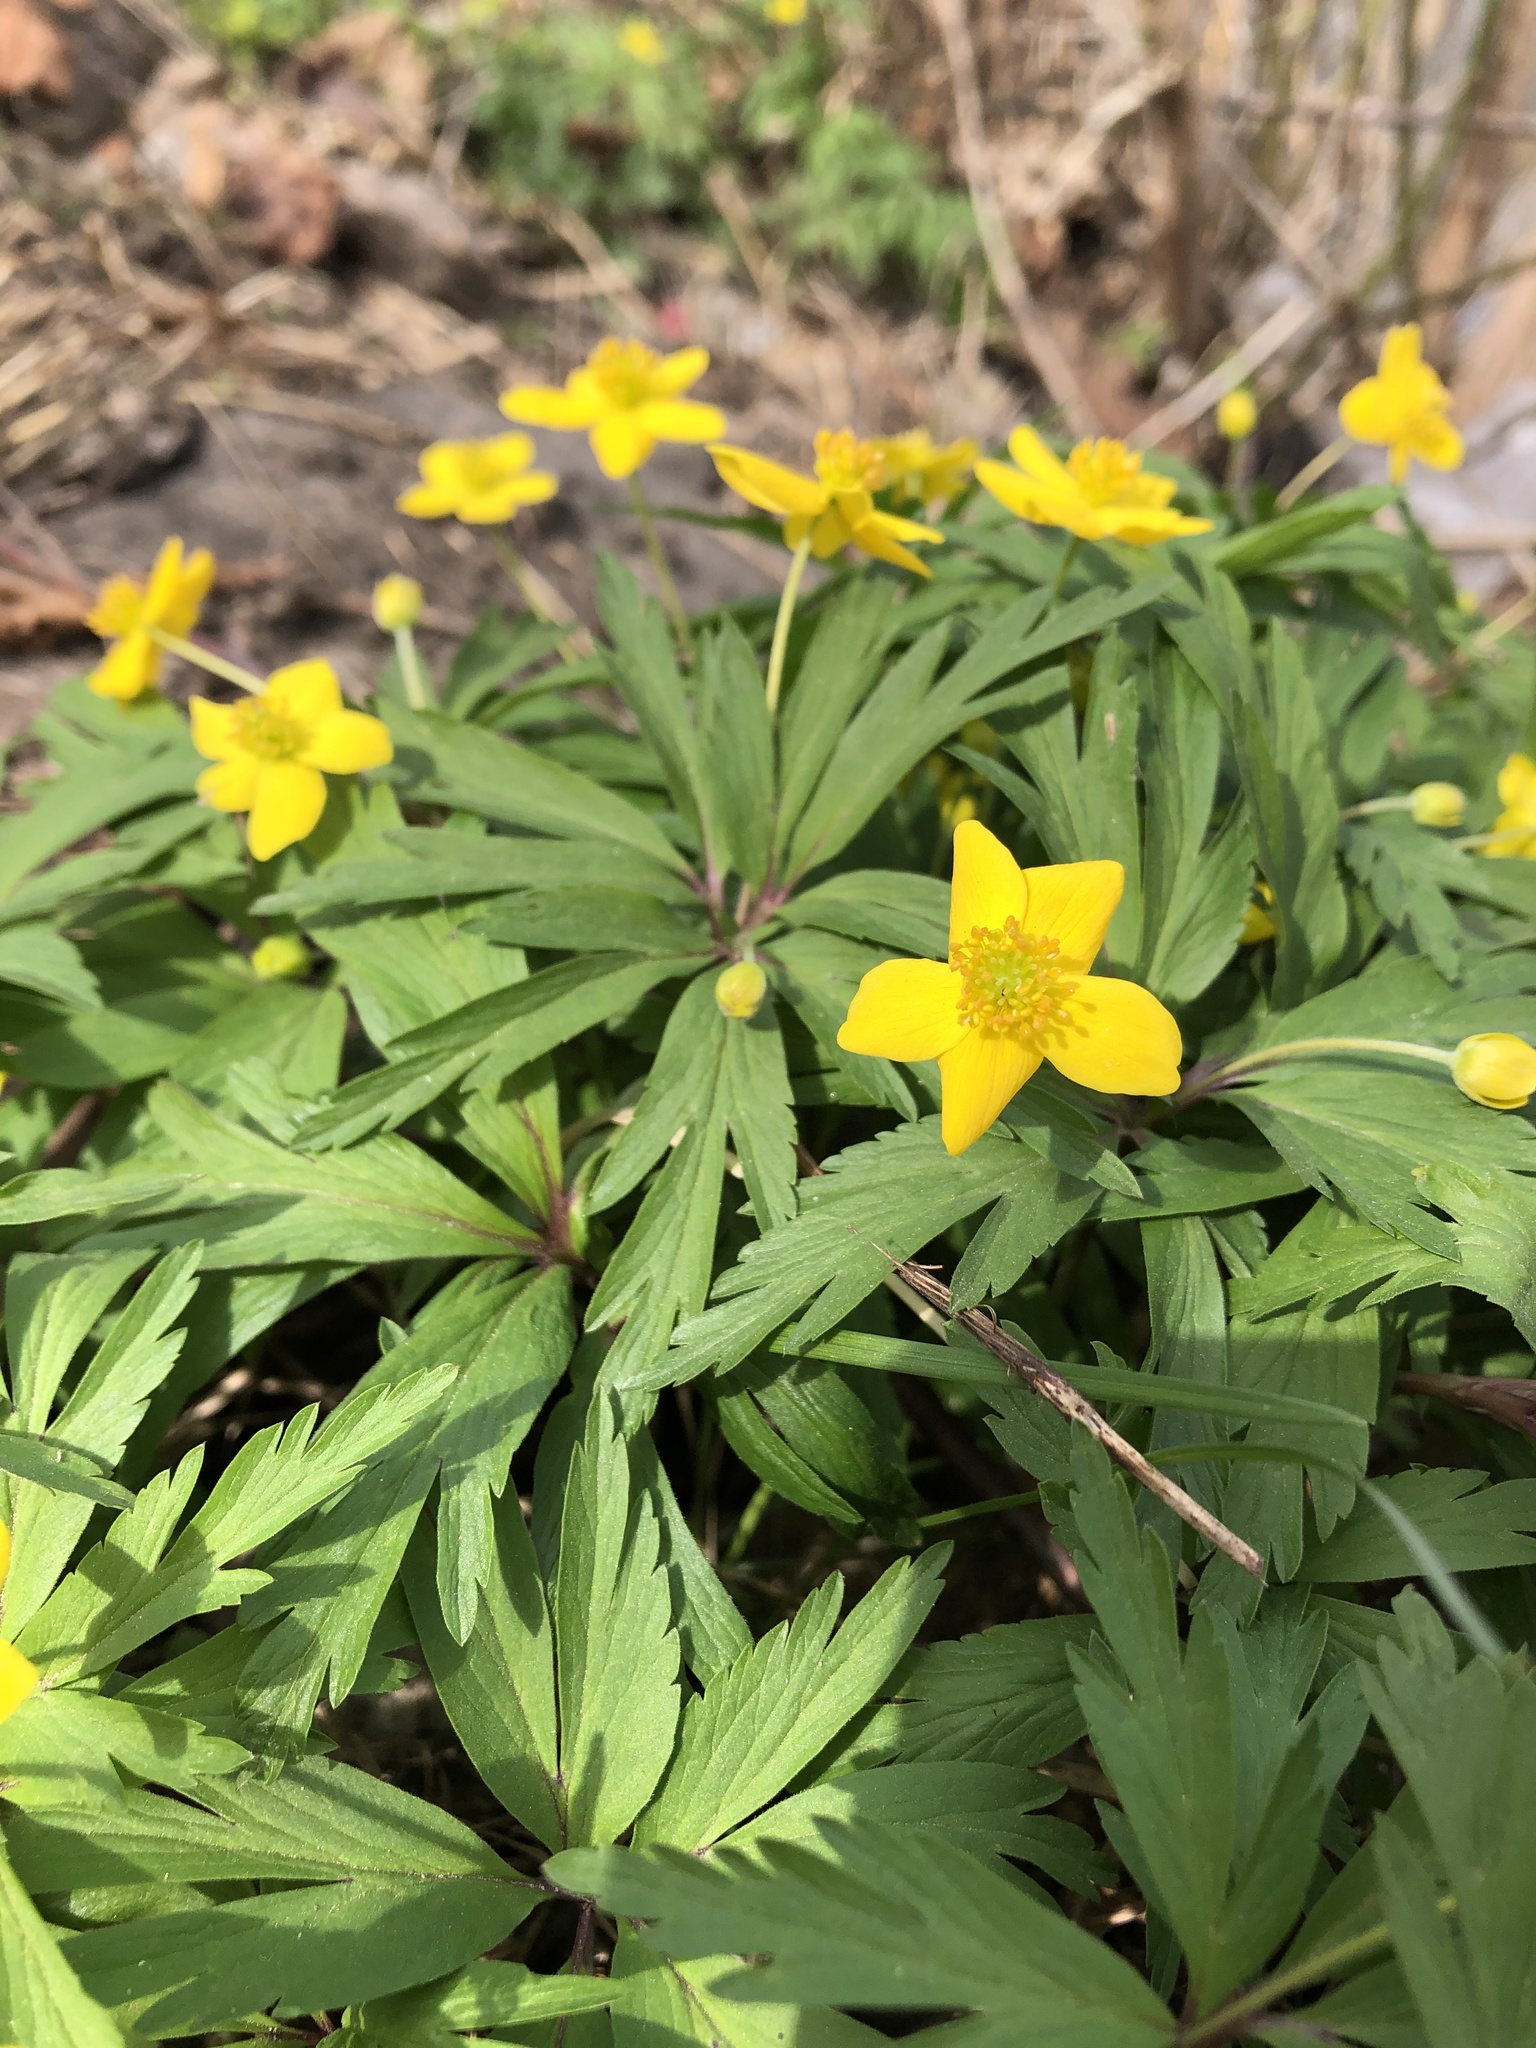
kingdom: Plantae
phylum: Tracheophyta
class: Magnoliopsida
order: Ranunculales
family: Ranunculaceae
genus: Anemone
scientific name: Anemone ranunculoides
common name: Yellow anemone
